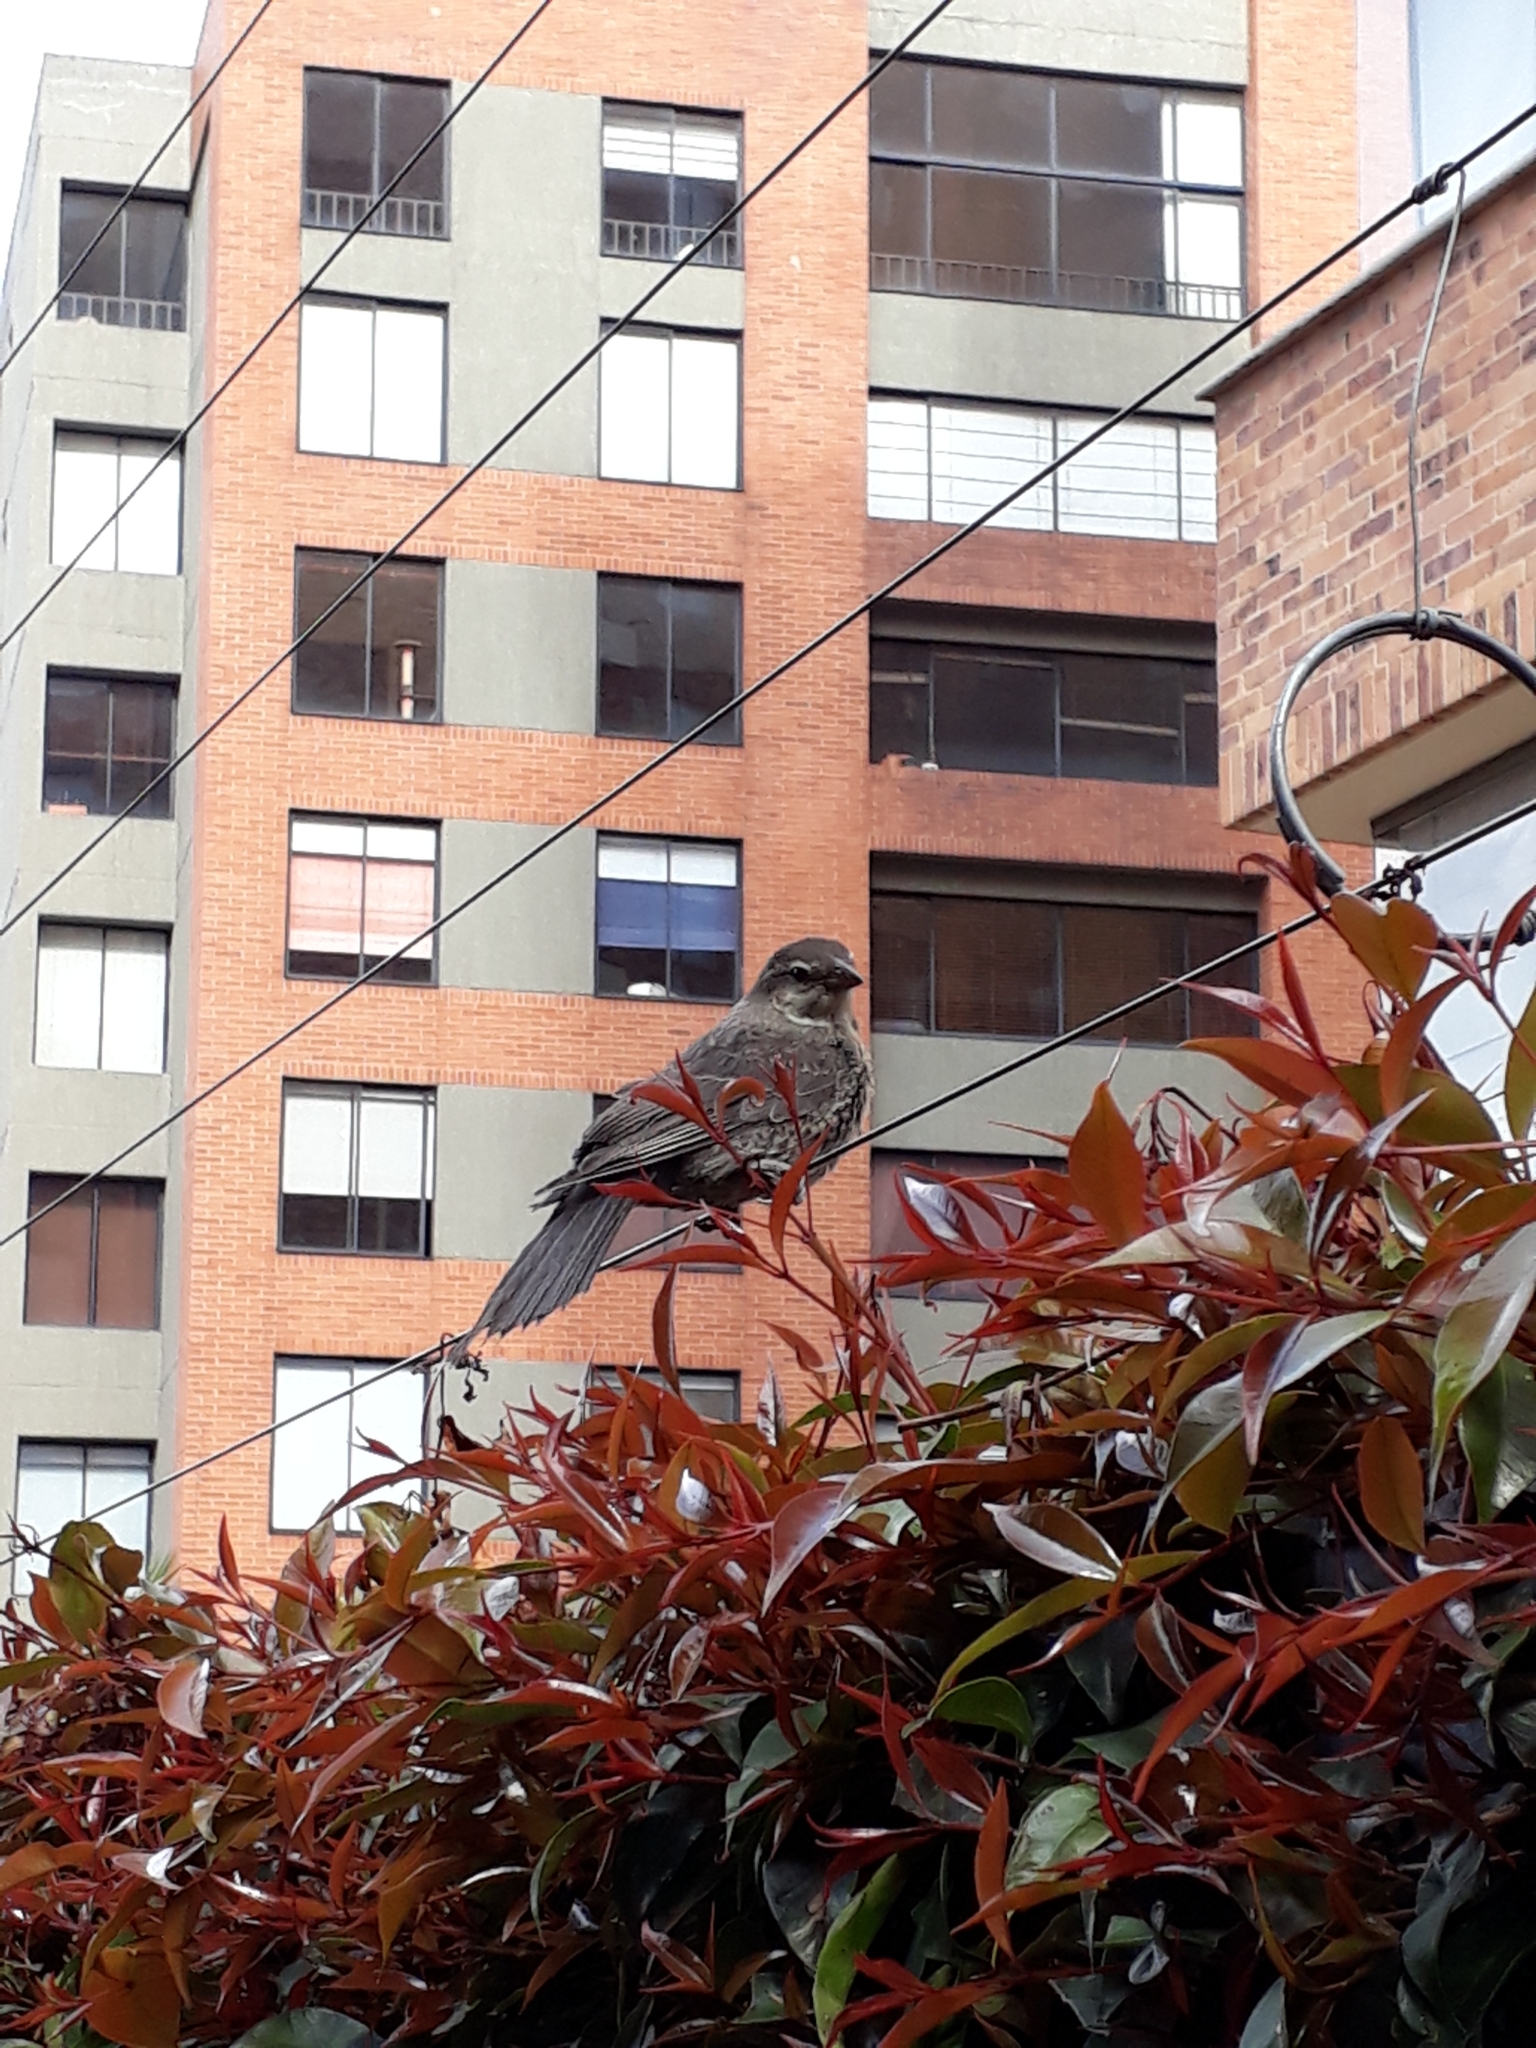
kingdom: Animalia
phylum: Chordata
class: Aves
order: Passeriformes
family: Icteridae
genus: Molothrus
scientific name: Molothrus bonariensis
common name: Shiny cowbird
